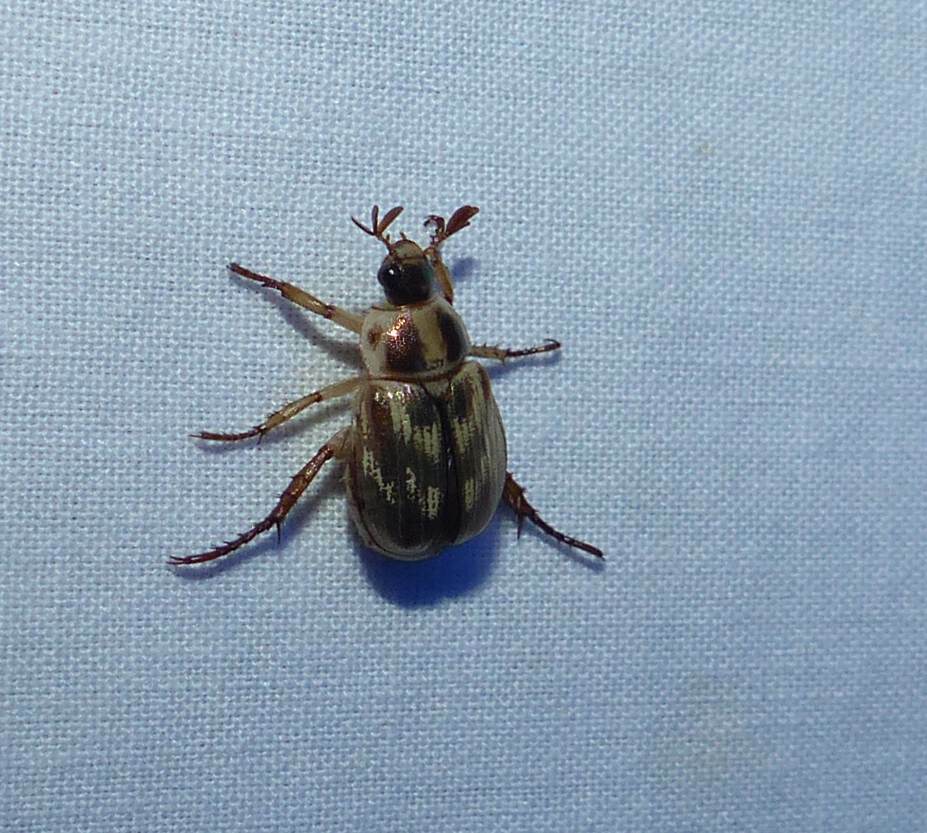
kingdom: Animalia
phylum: Arthropoda
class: Insecta
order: Coleoptera
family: Scarabaeidae
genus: Exomala
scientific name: Exomala orientalis
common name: Oriental beetle
